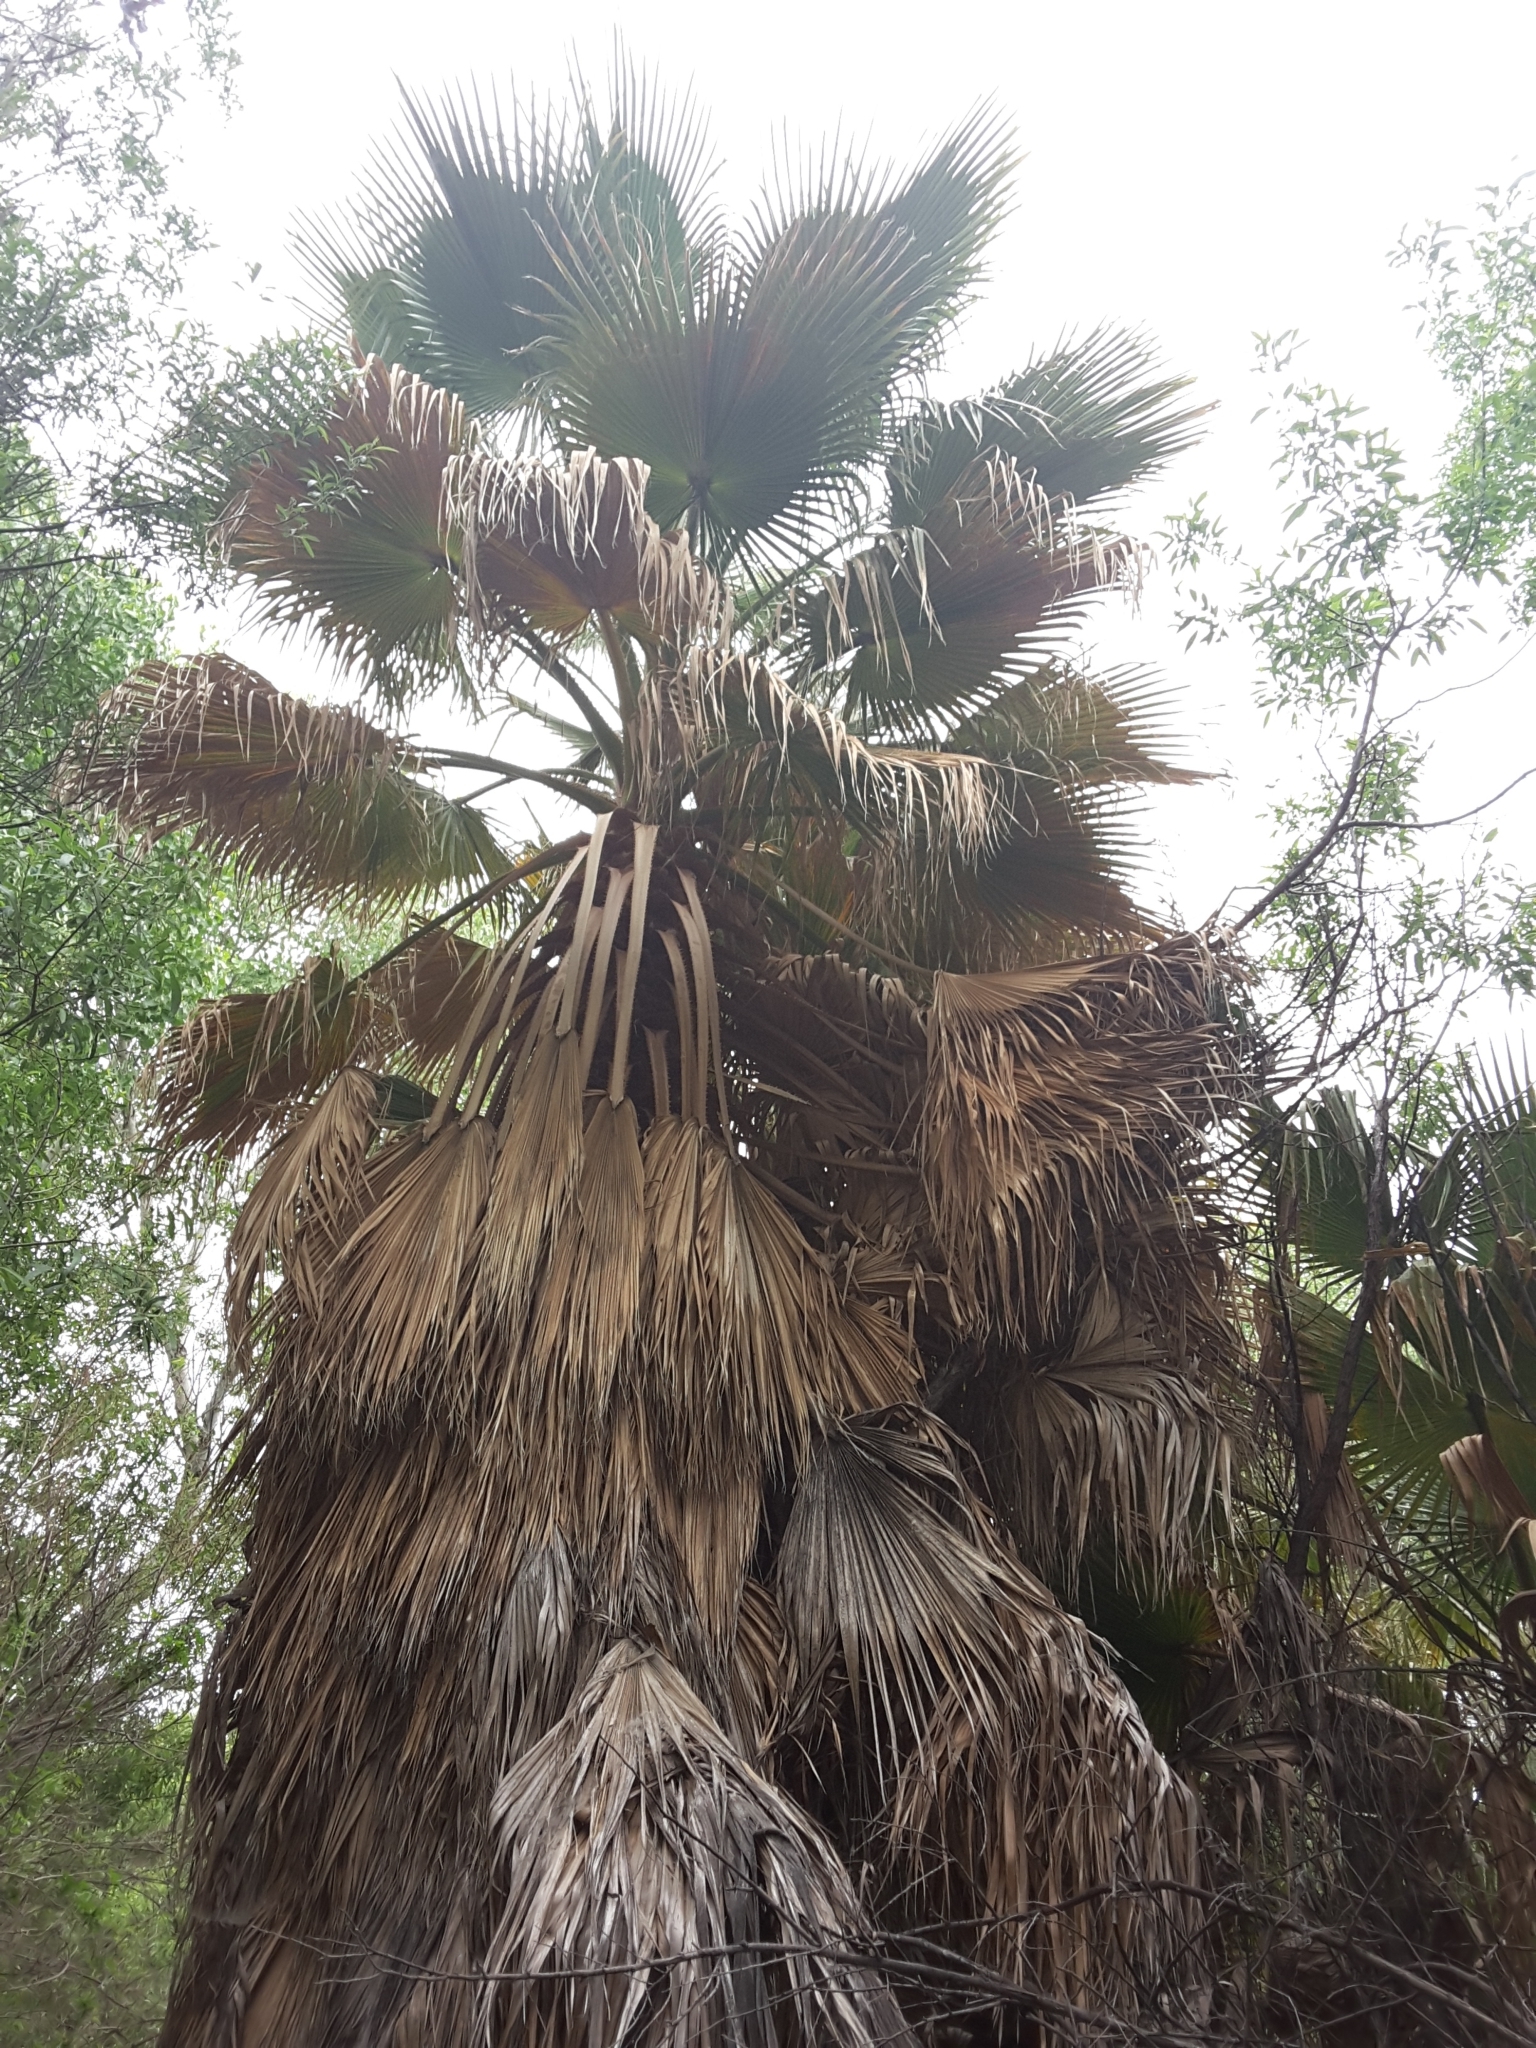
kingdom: Plantae
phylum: Tracheophyta
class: Liliopsida
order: Arecales
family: Arecaceae
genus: Washingtonia
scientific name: Washingtonia filifera
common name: California fan palm
